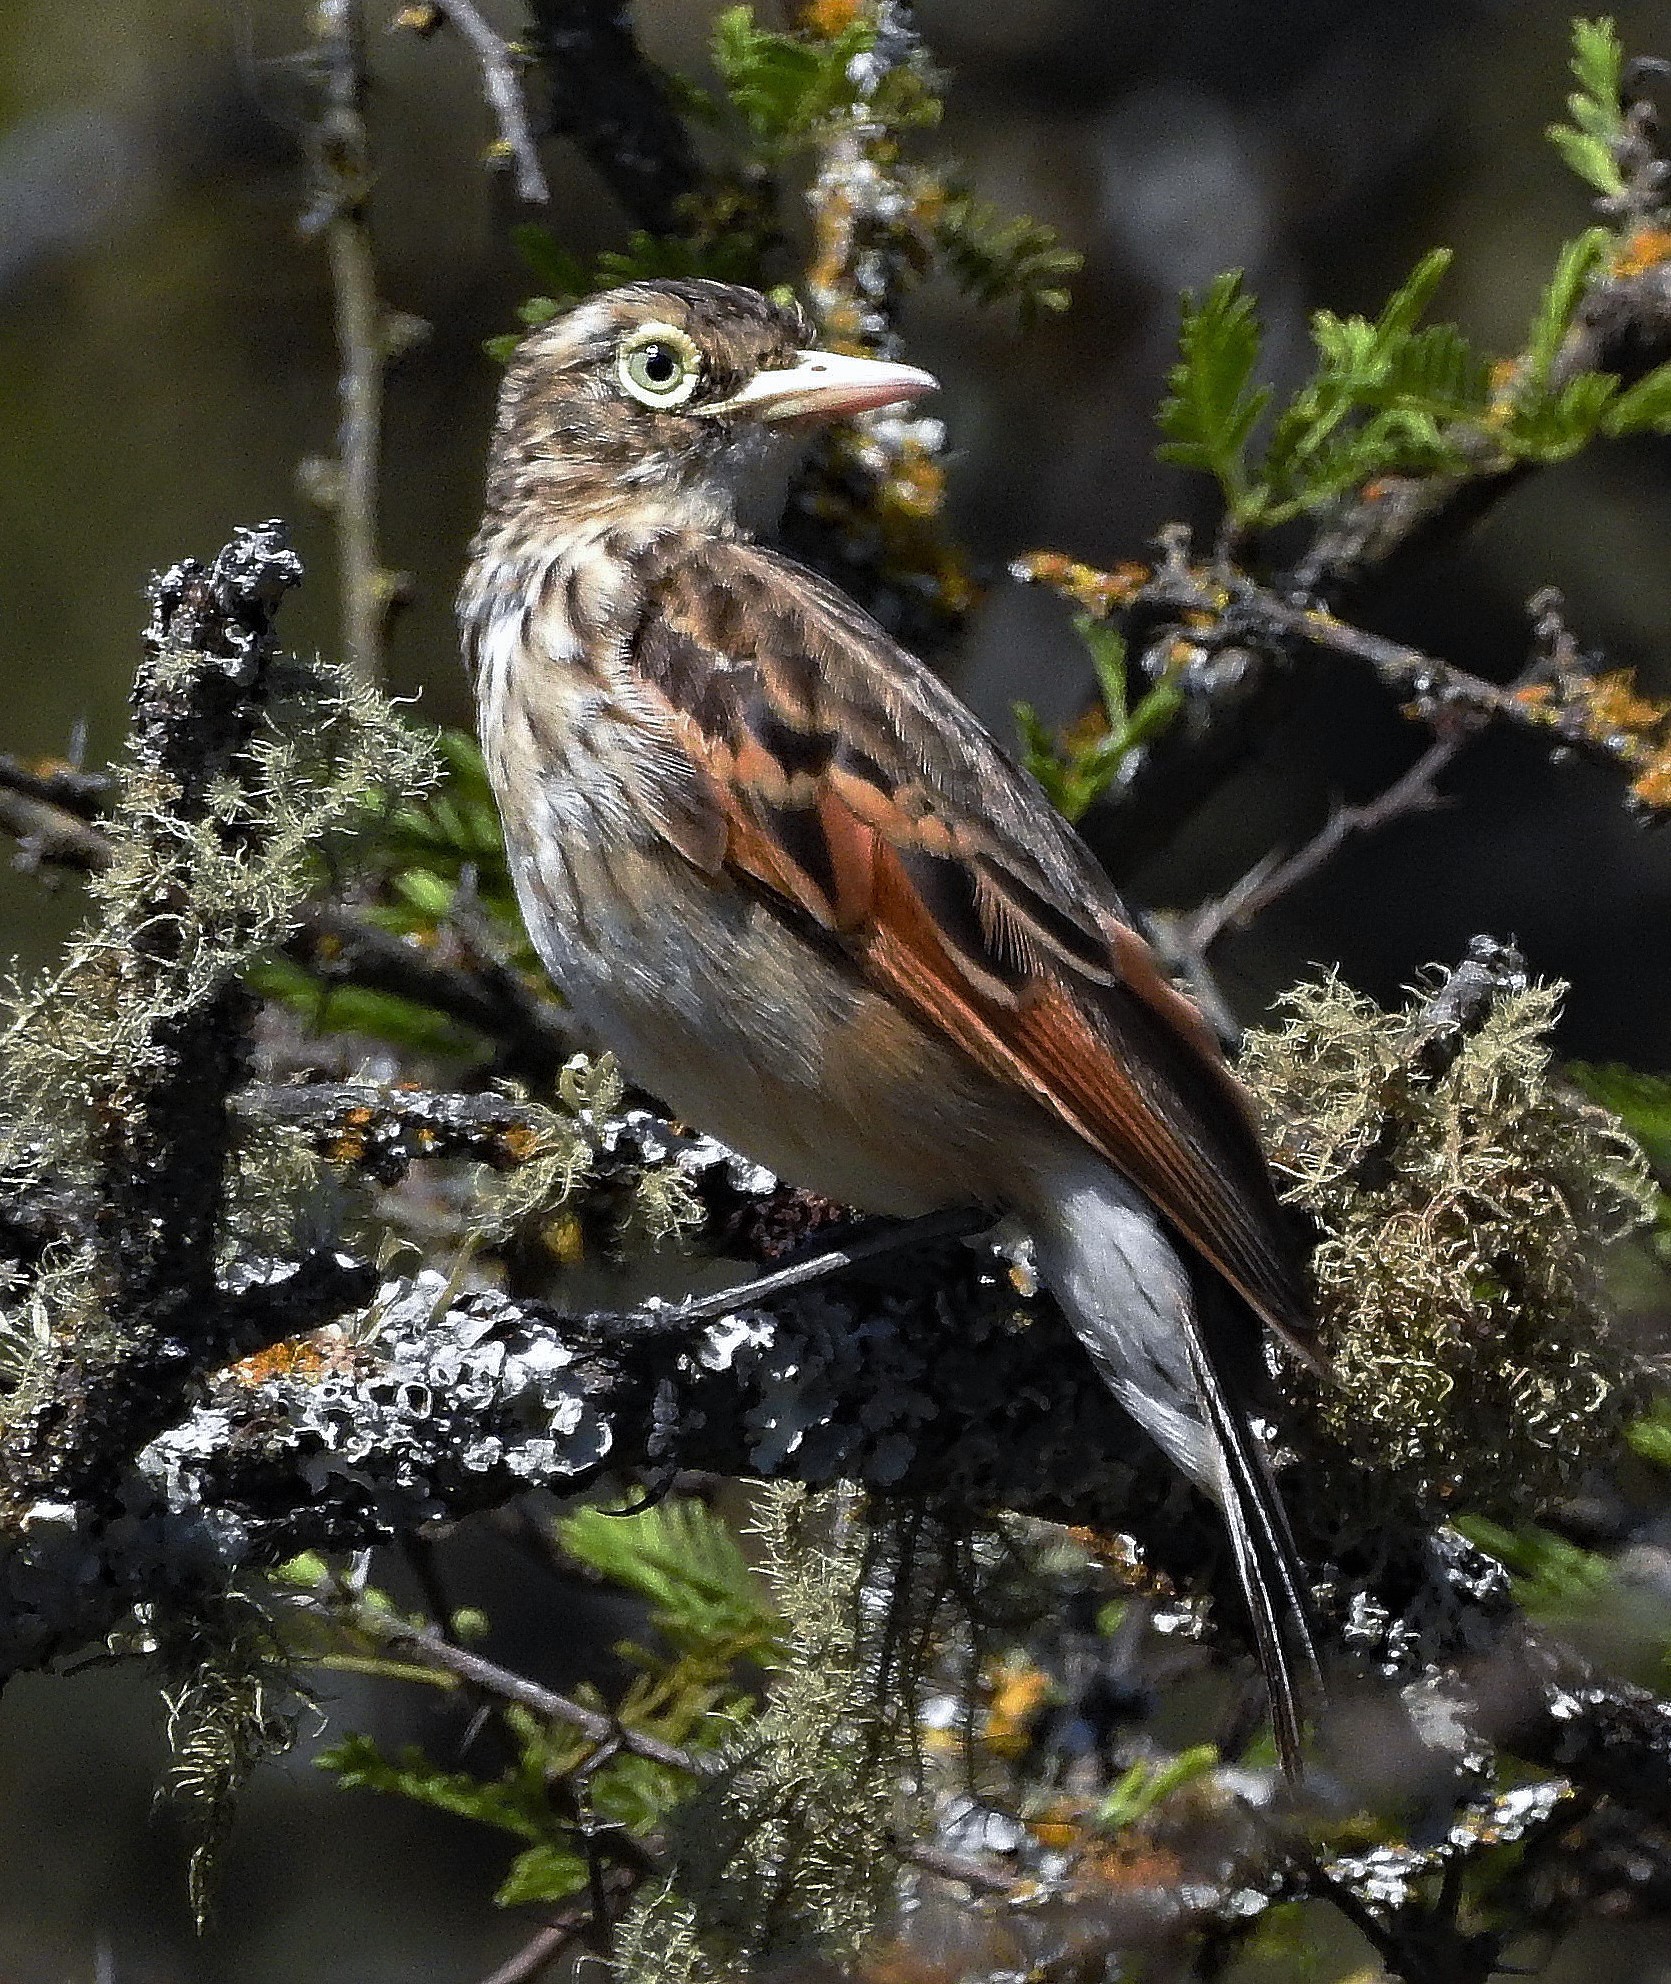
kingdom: Animalia
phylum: Chordata
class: Aves
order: Passeriformes
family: Tyrannidae
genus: Hymenops
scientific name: Hymenops perspicillatus
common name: Spectacled tyrant
